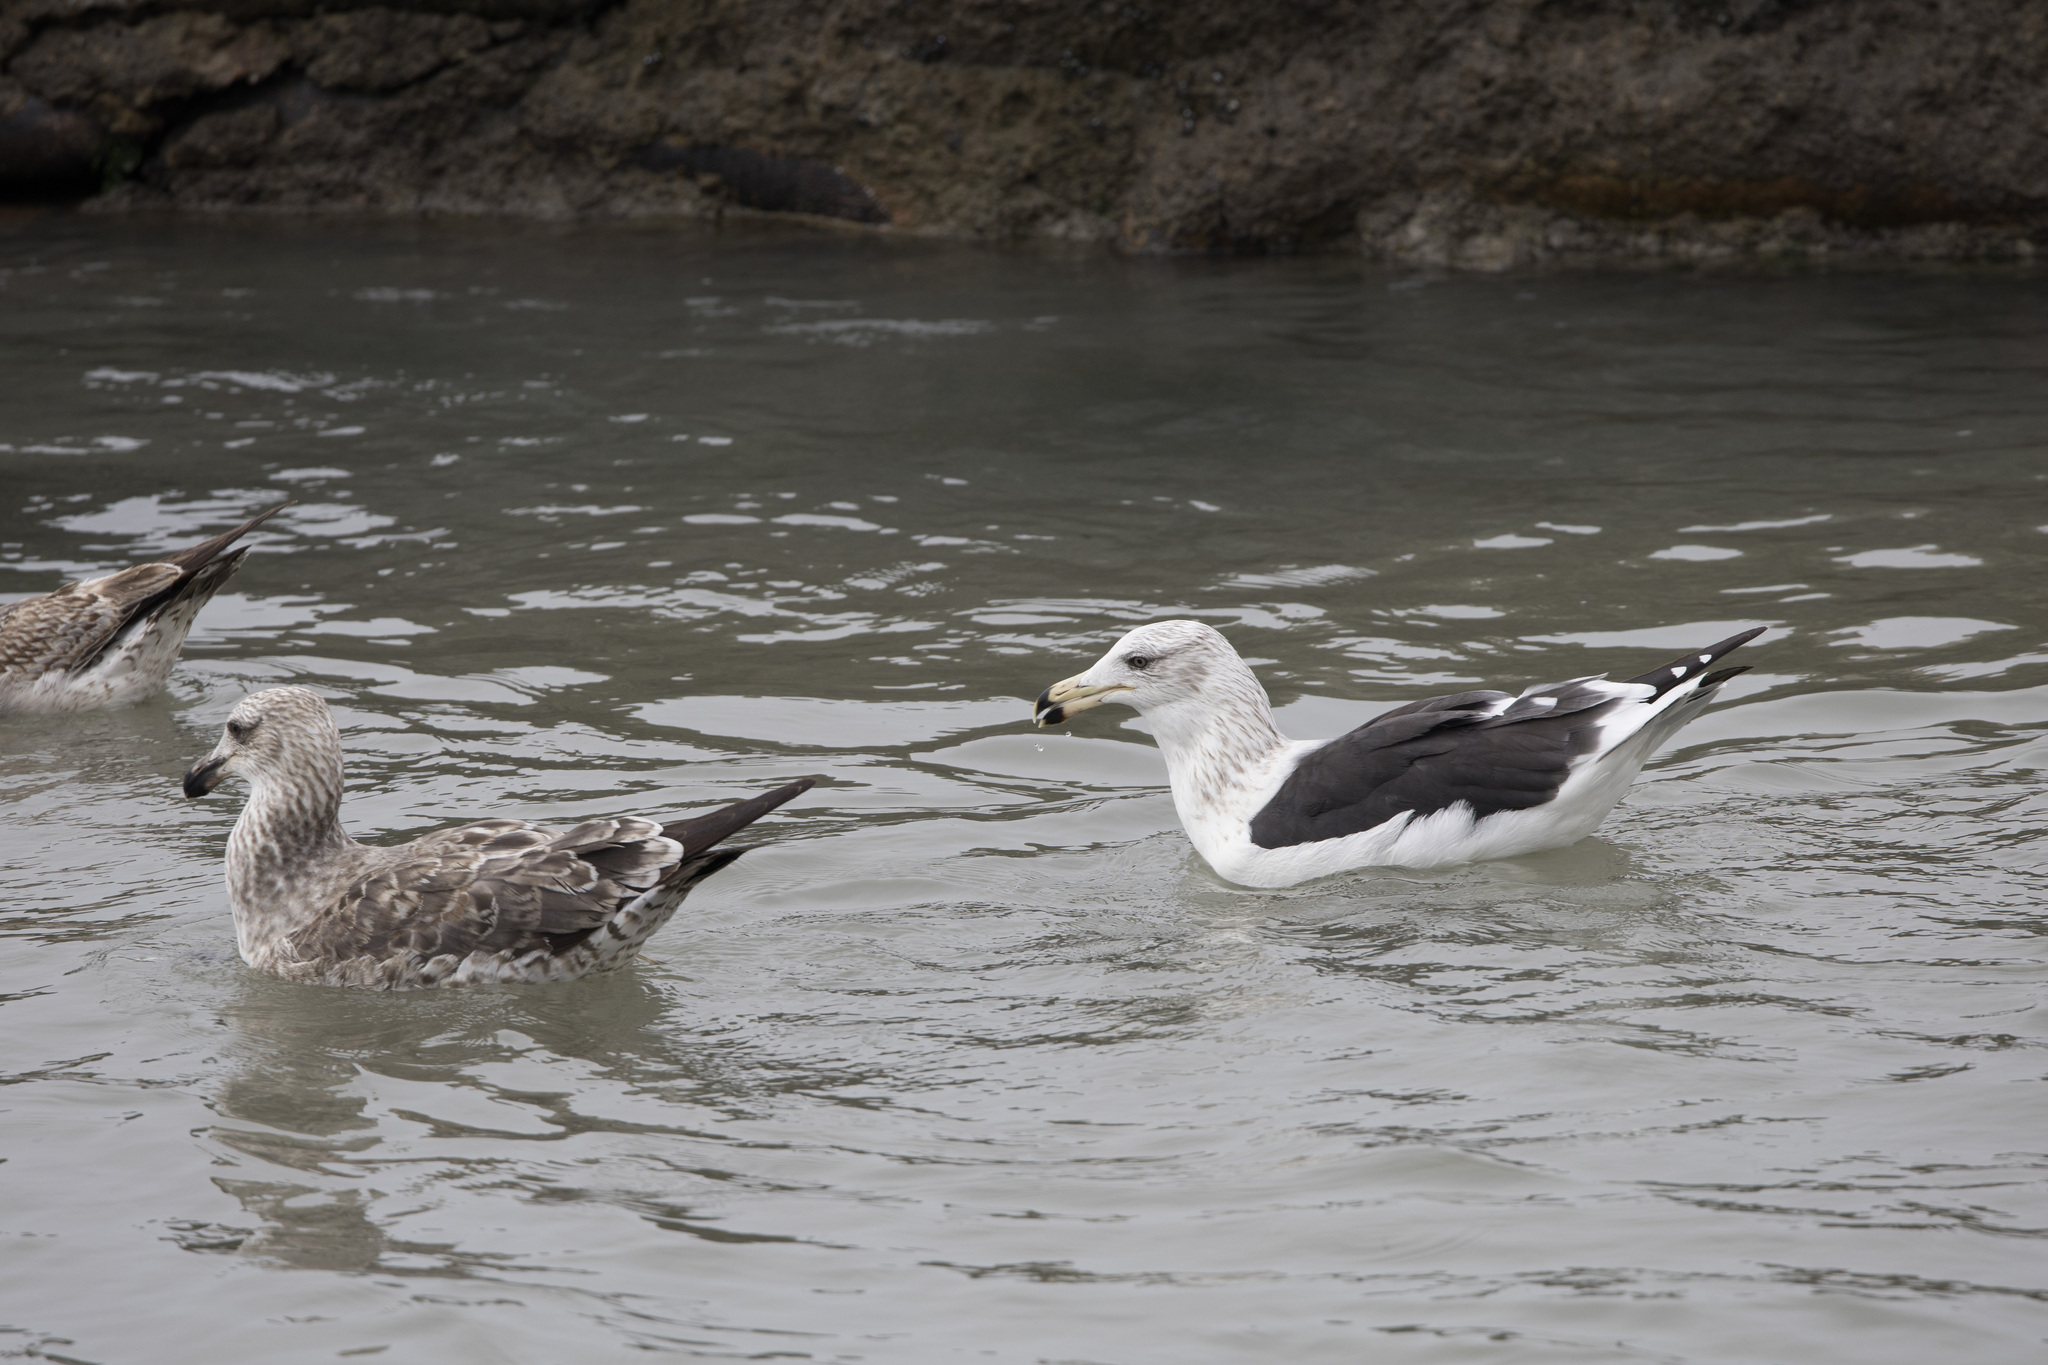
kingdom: Animalia
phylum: Chordata
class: Aves
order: Charadriiformes
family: Laridae
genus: Larus
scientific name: Larus belcheri
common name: Belcher's gull
